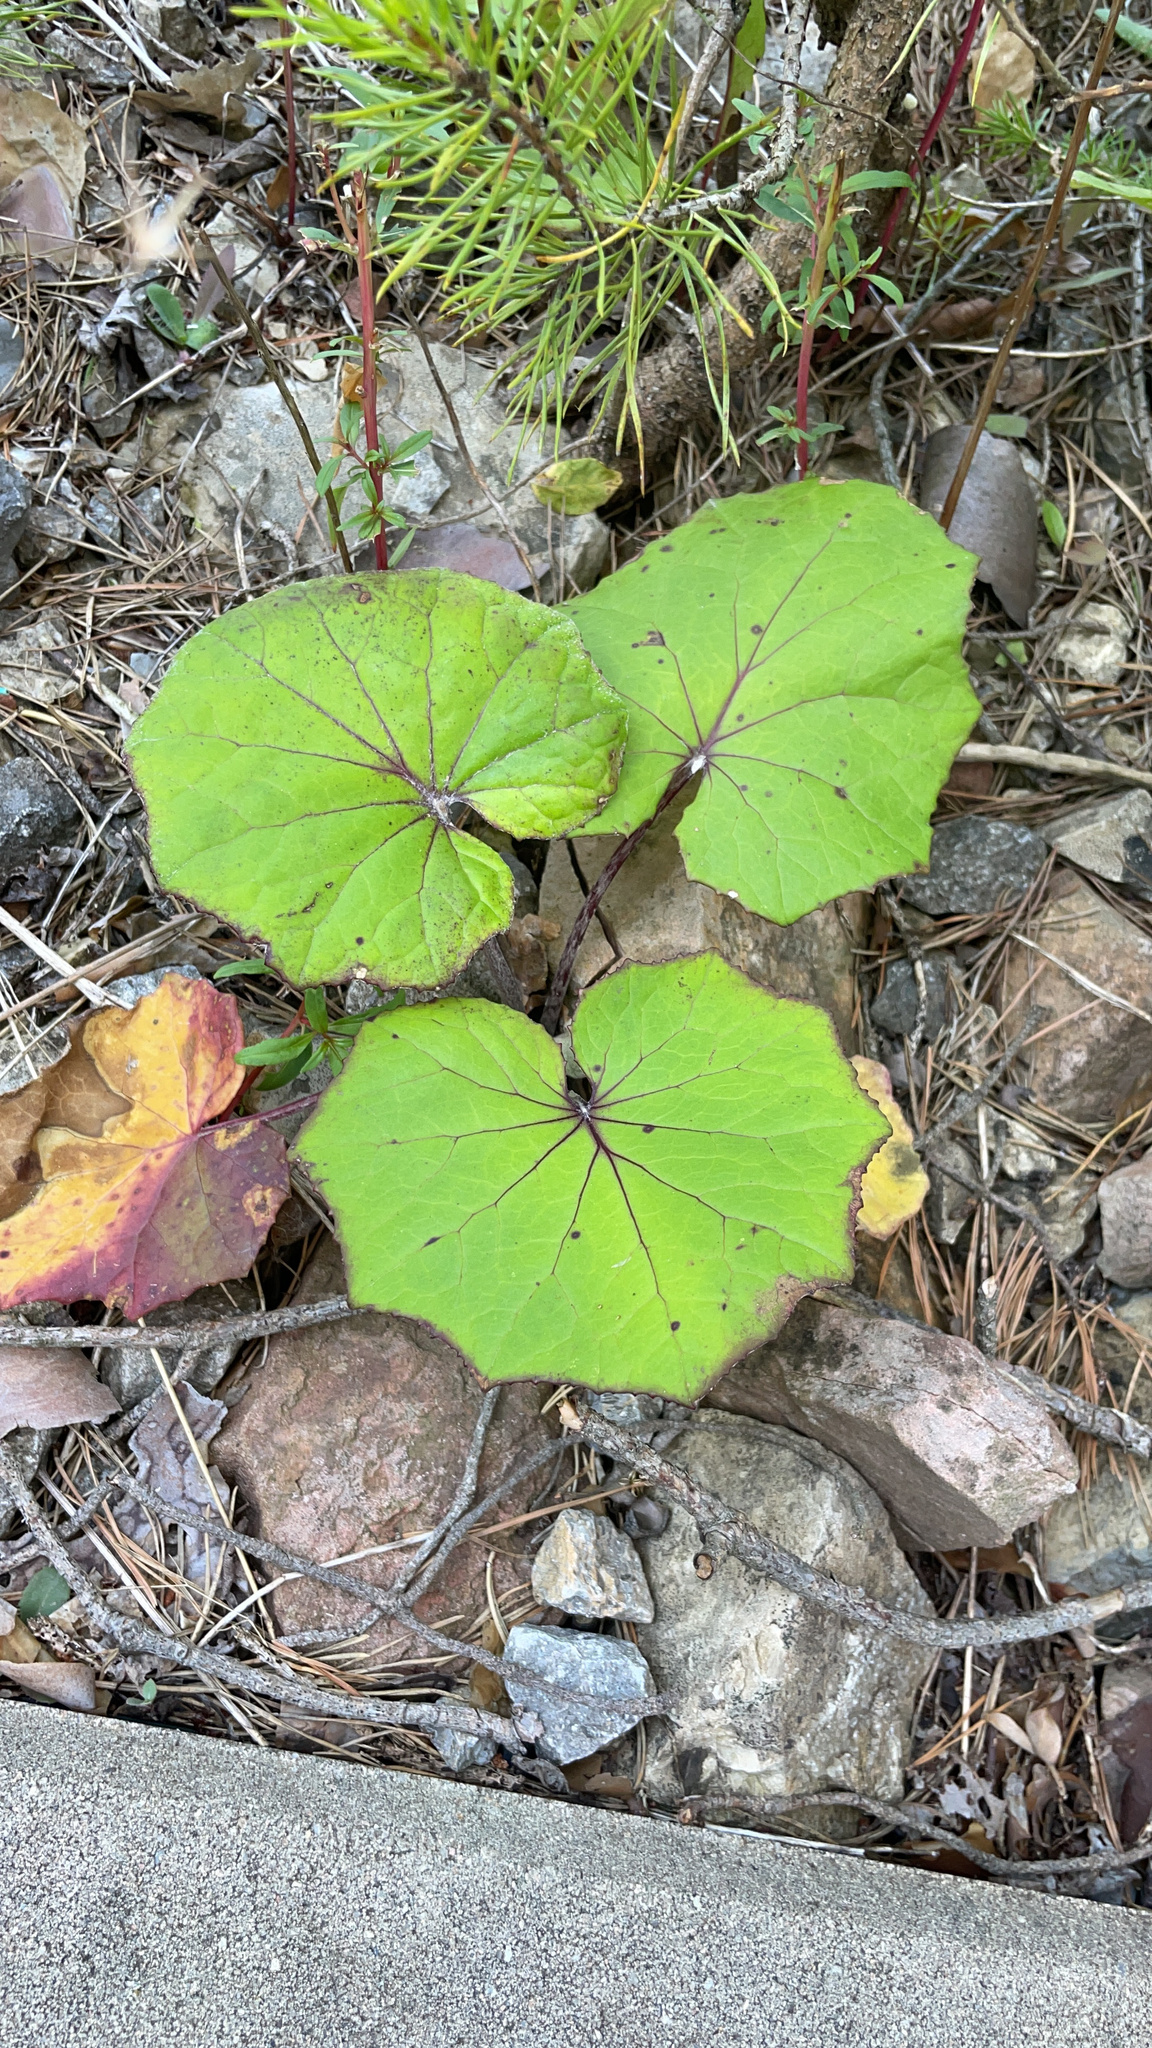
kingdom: Plantae
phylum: Tracheophyta
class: Magnoliopsida
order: Asterales
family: Asteraceae
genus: Tussilago
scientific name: Tussilago farfara
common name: Coltsfoot
